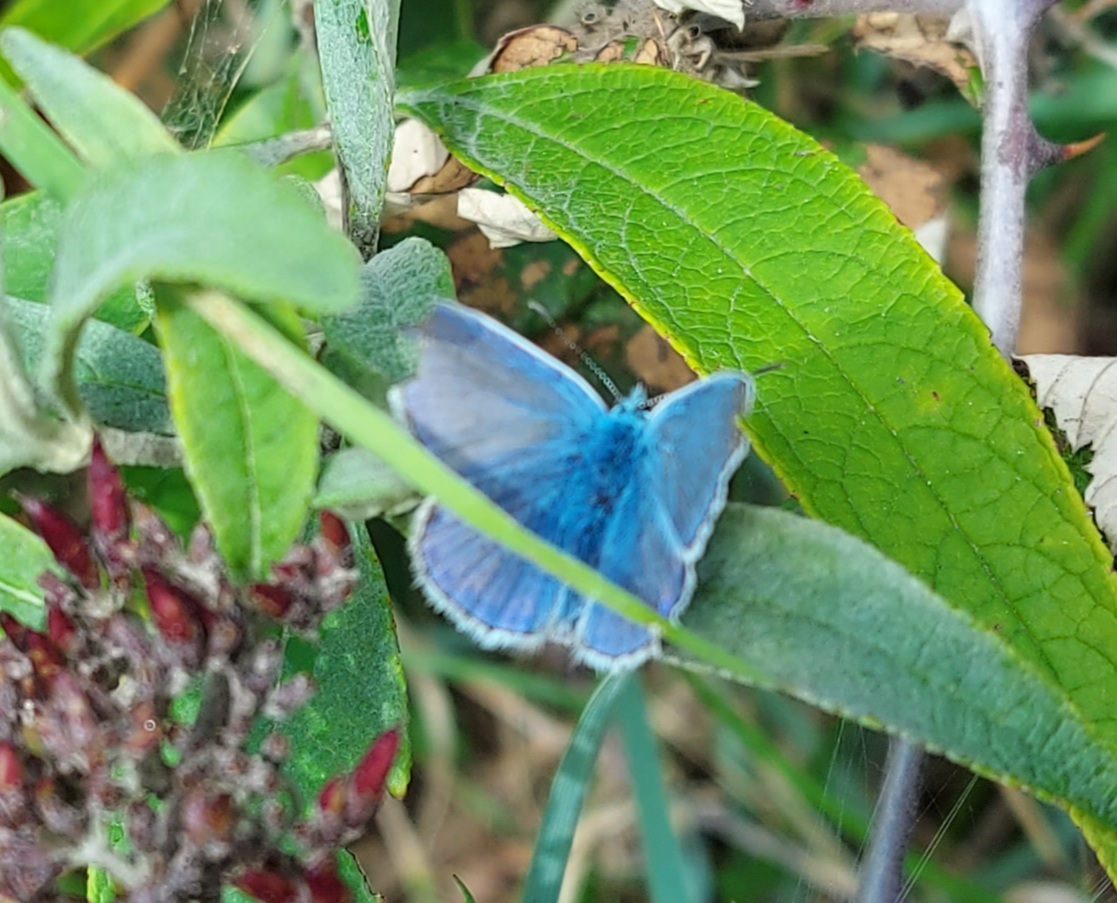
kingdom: Animalia
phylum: Arthropoda
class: Insecta
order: Lepidoptera
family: Lycaenidae
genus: Polyommatus
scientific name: Polyommatus icarus
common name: Common blue
